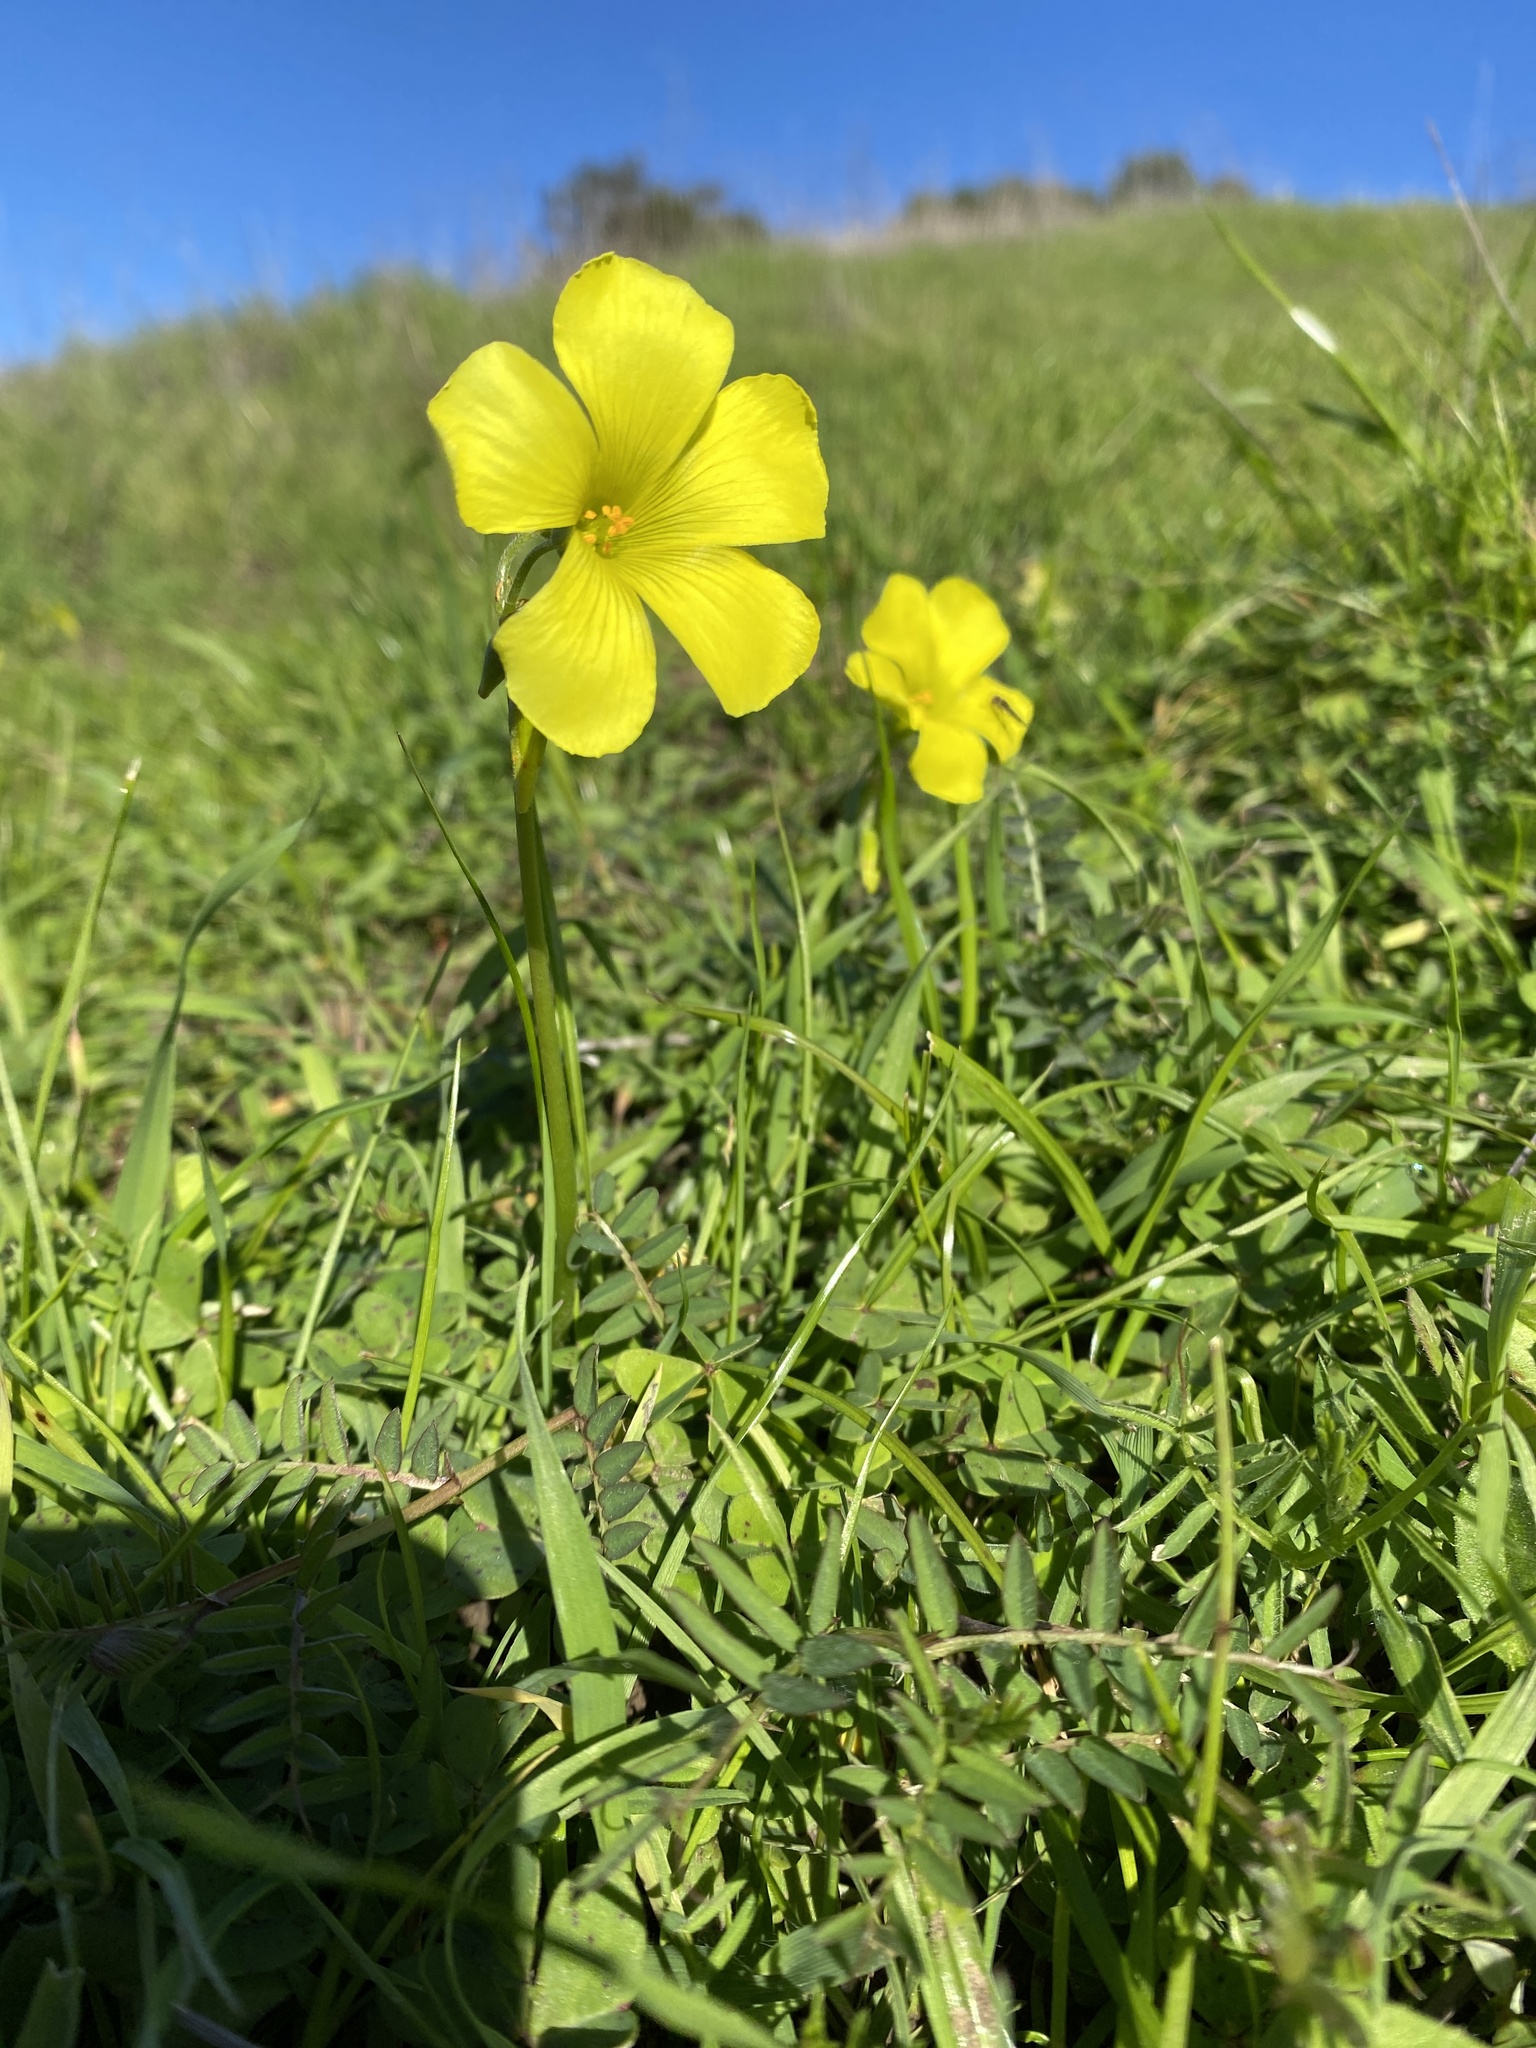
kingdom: Plantae
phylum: Tracheophyta
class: Magnoliopsida
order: Oxalidales
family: Oxalidaceae
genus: Oxalis
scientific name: Oxalis pes-caprae
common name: Bermuda-buttercup
